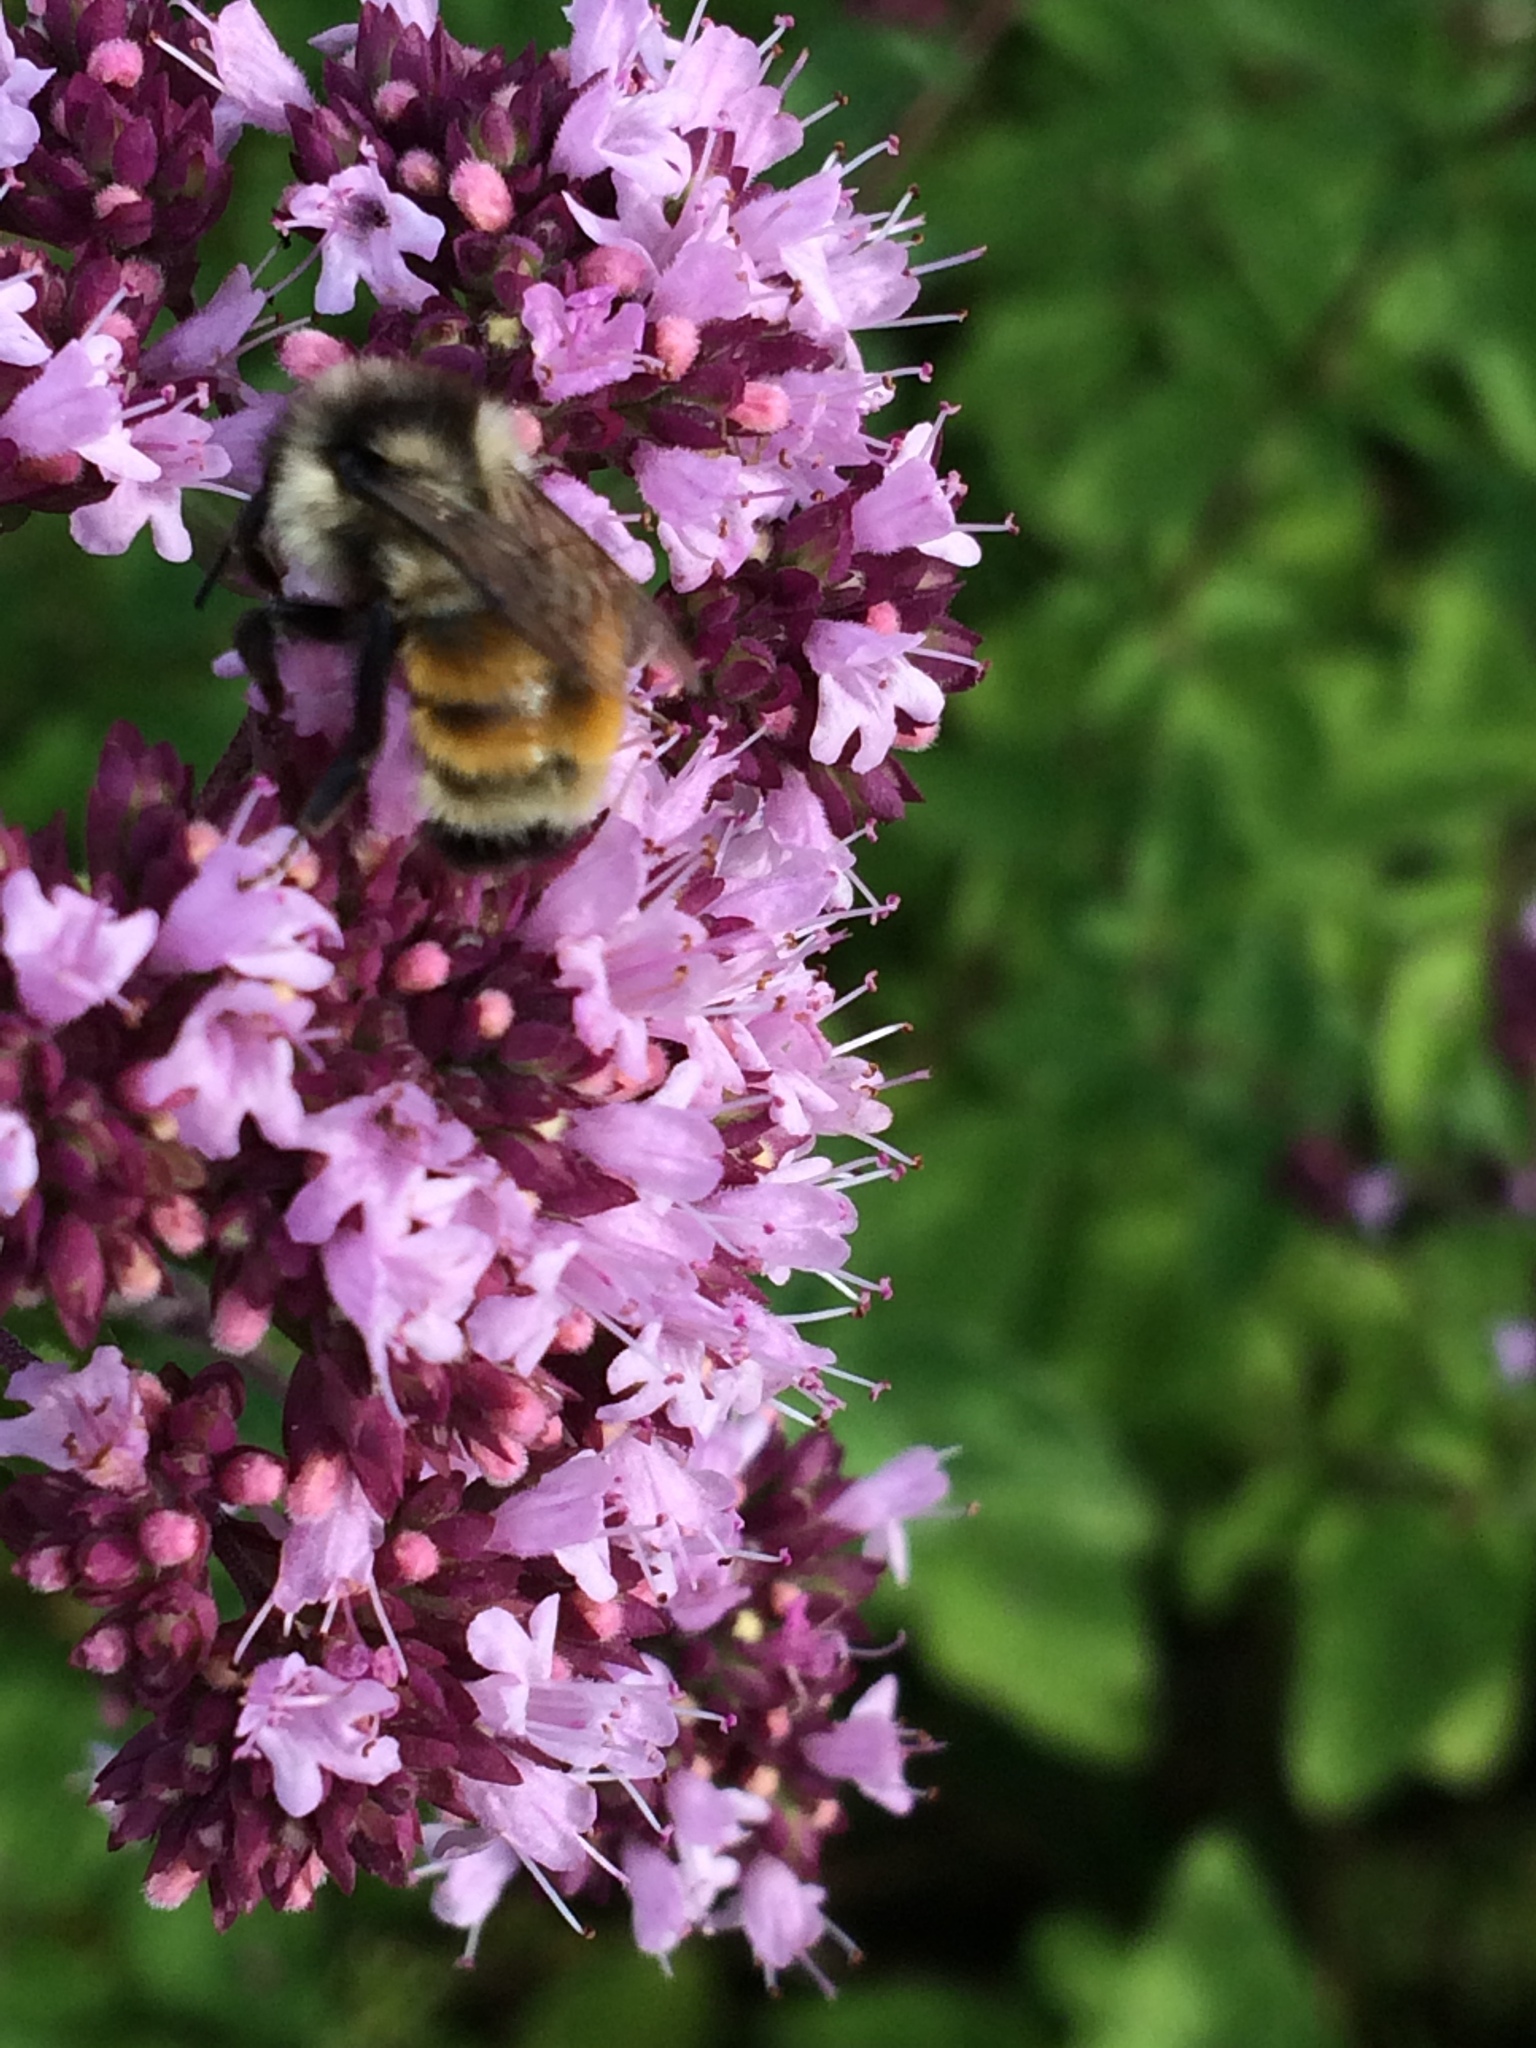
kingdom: Animalia
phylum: Arthropoda
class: Insecta
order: Hymenoptera
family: Apidae
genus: Bombus
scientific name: Bombus ternarius
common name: Tri-colored bumble bee
